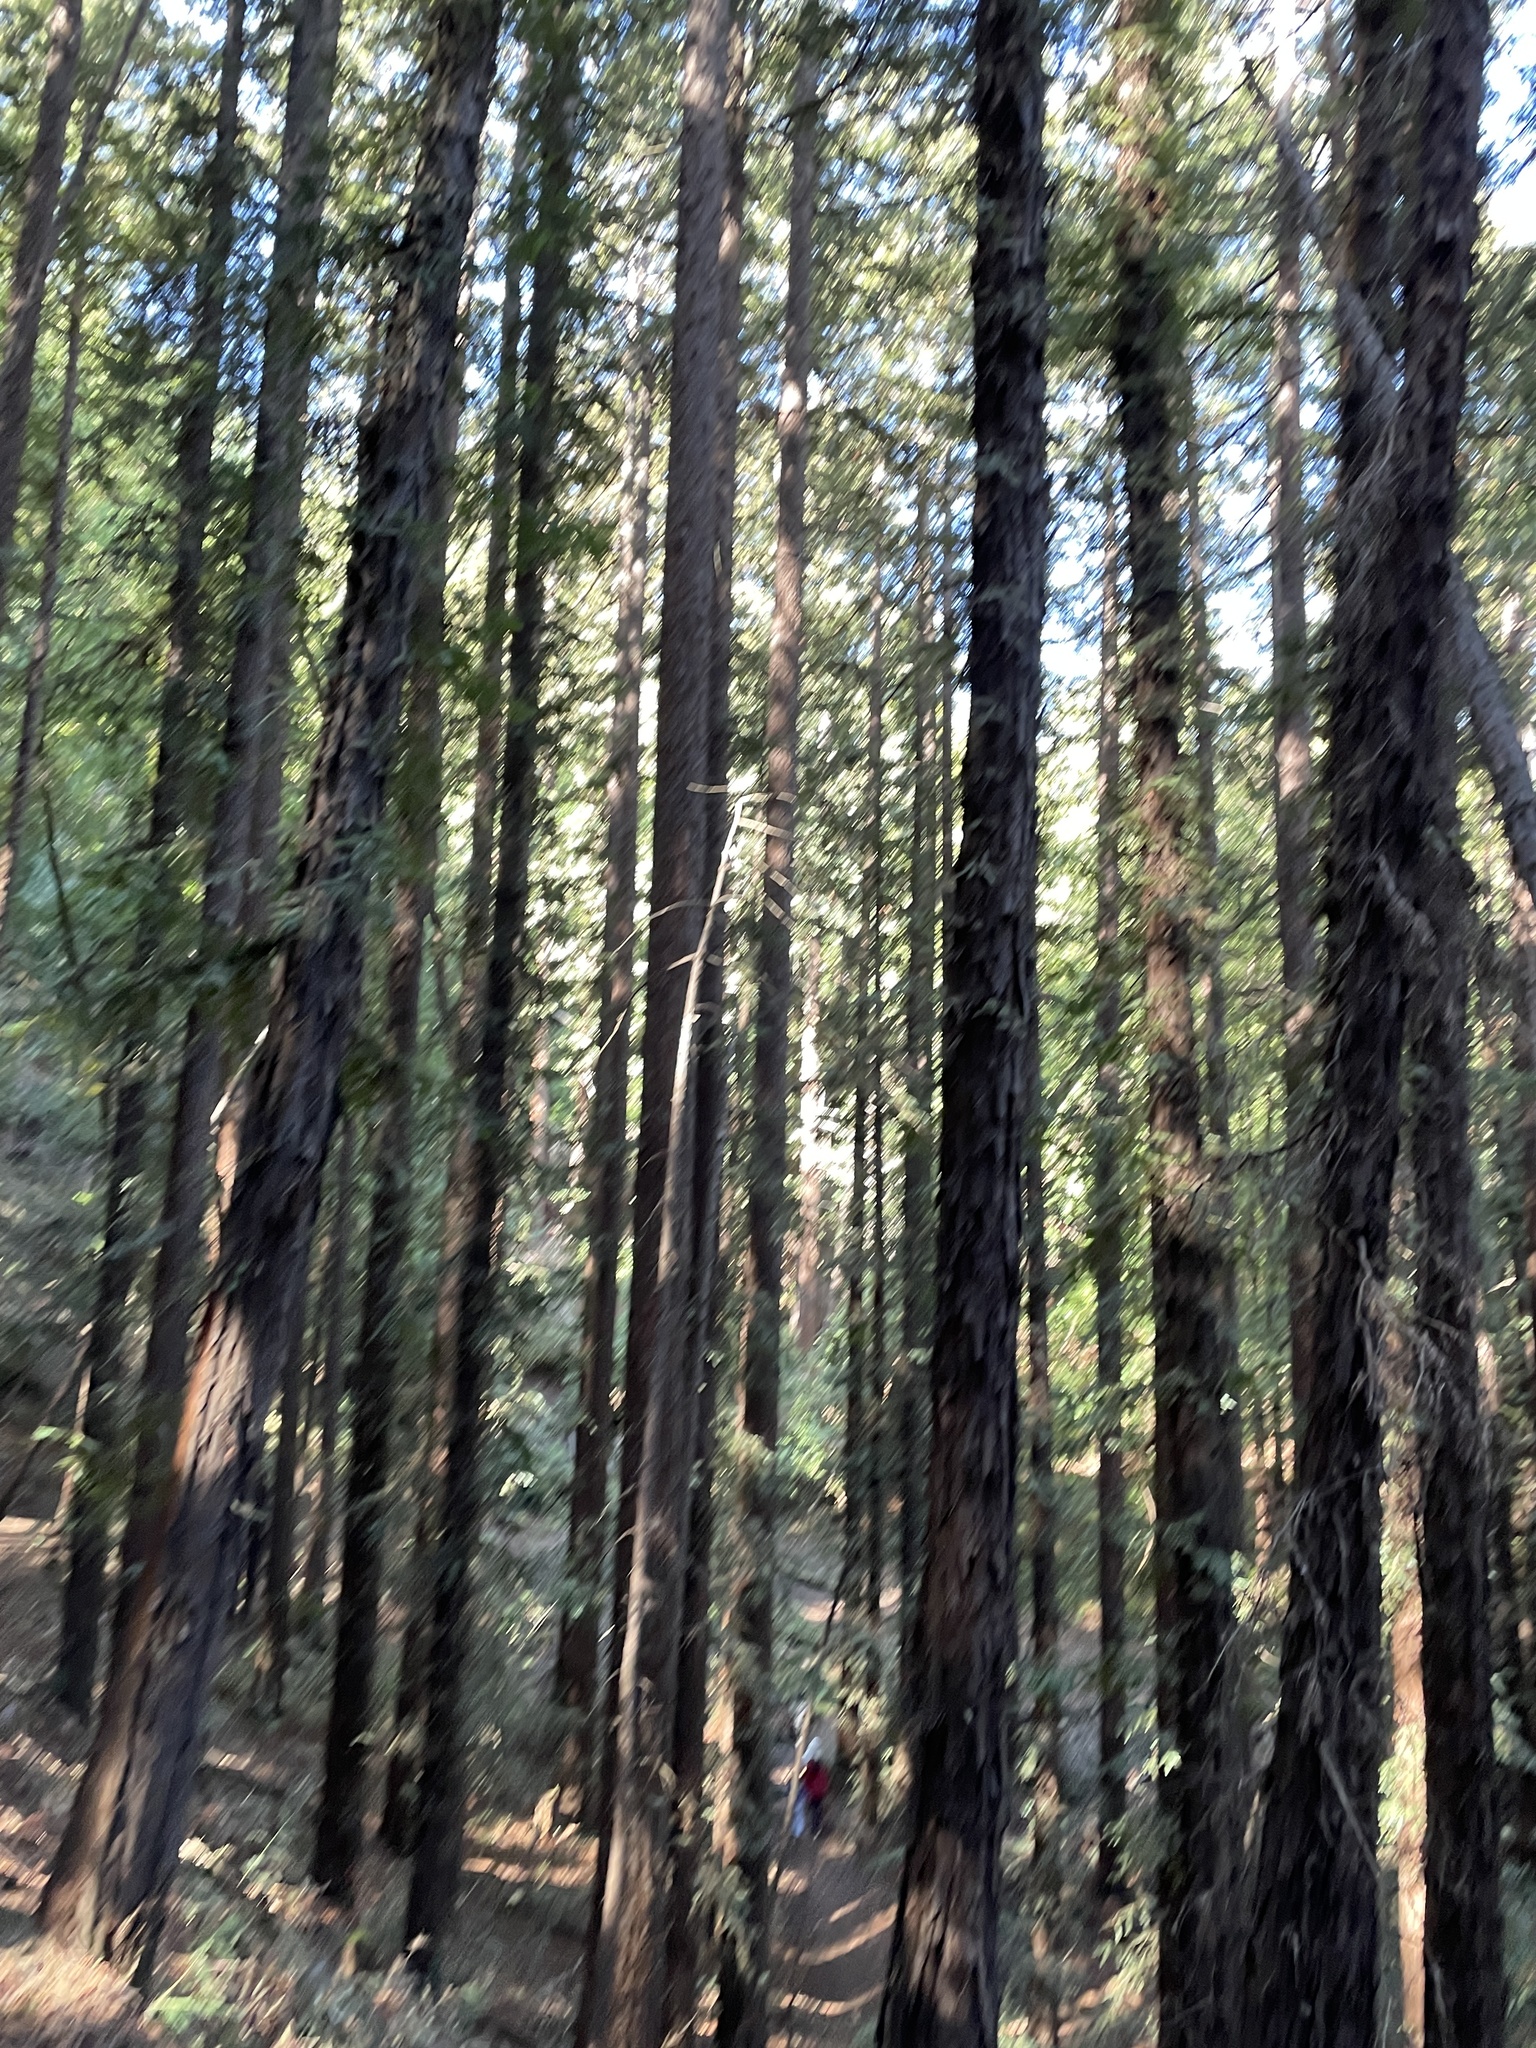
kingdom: Plantae
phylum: Tracheophyta
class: Pinopsida
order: Pinales
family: Cupressaceae
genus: Sequoia
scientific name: Sequoia sempervirens
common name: Coast redwood
